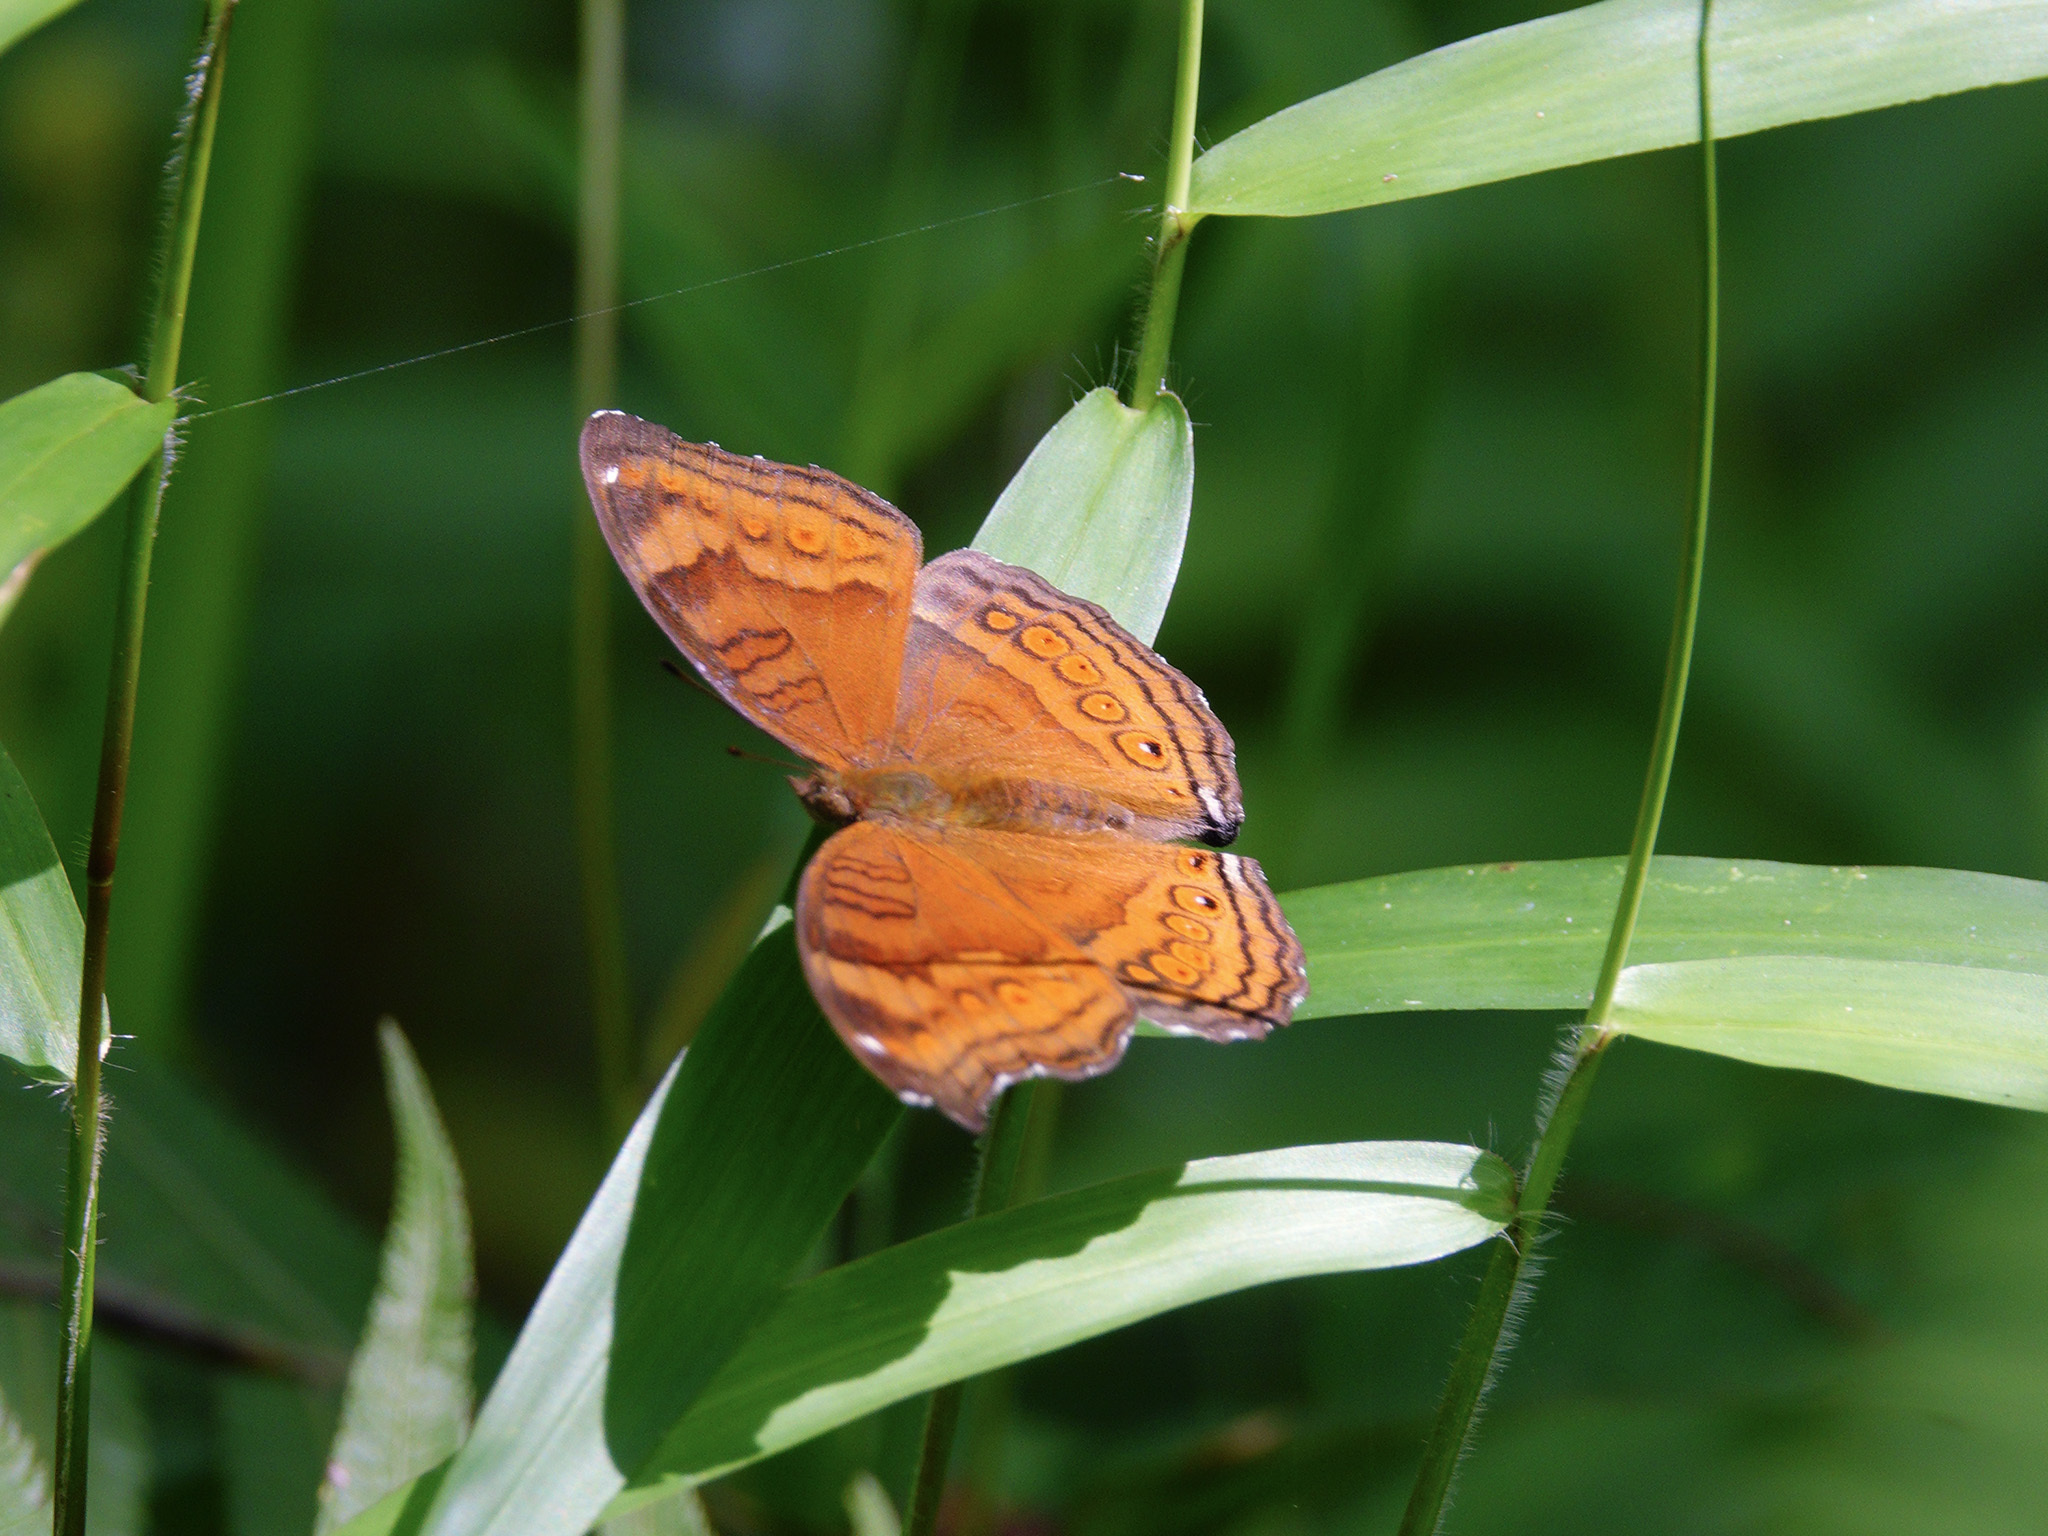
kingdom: Animalia
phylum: Arthropoda
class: Insecta
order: Lepidoptera
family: Nymphalidae
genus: Junonia
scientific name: Junonia hedonia
